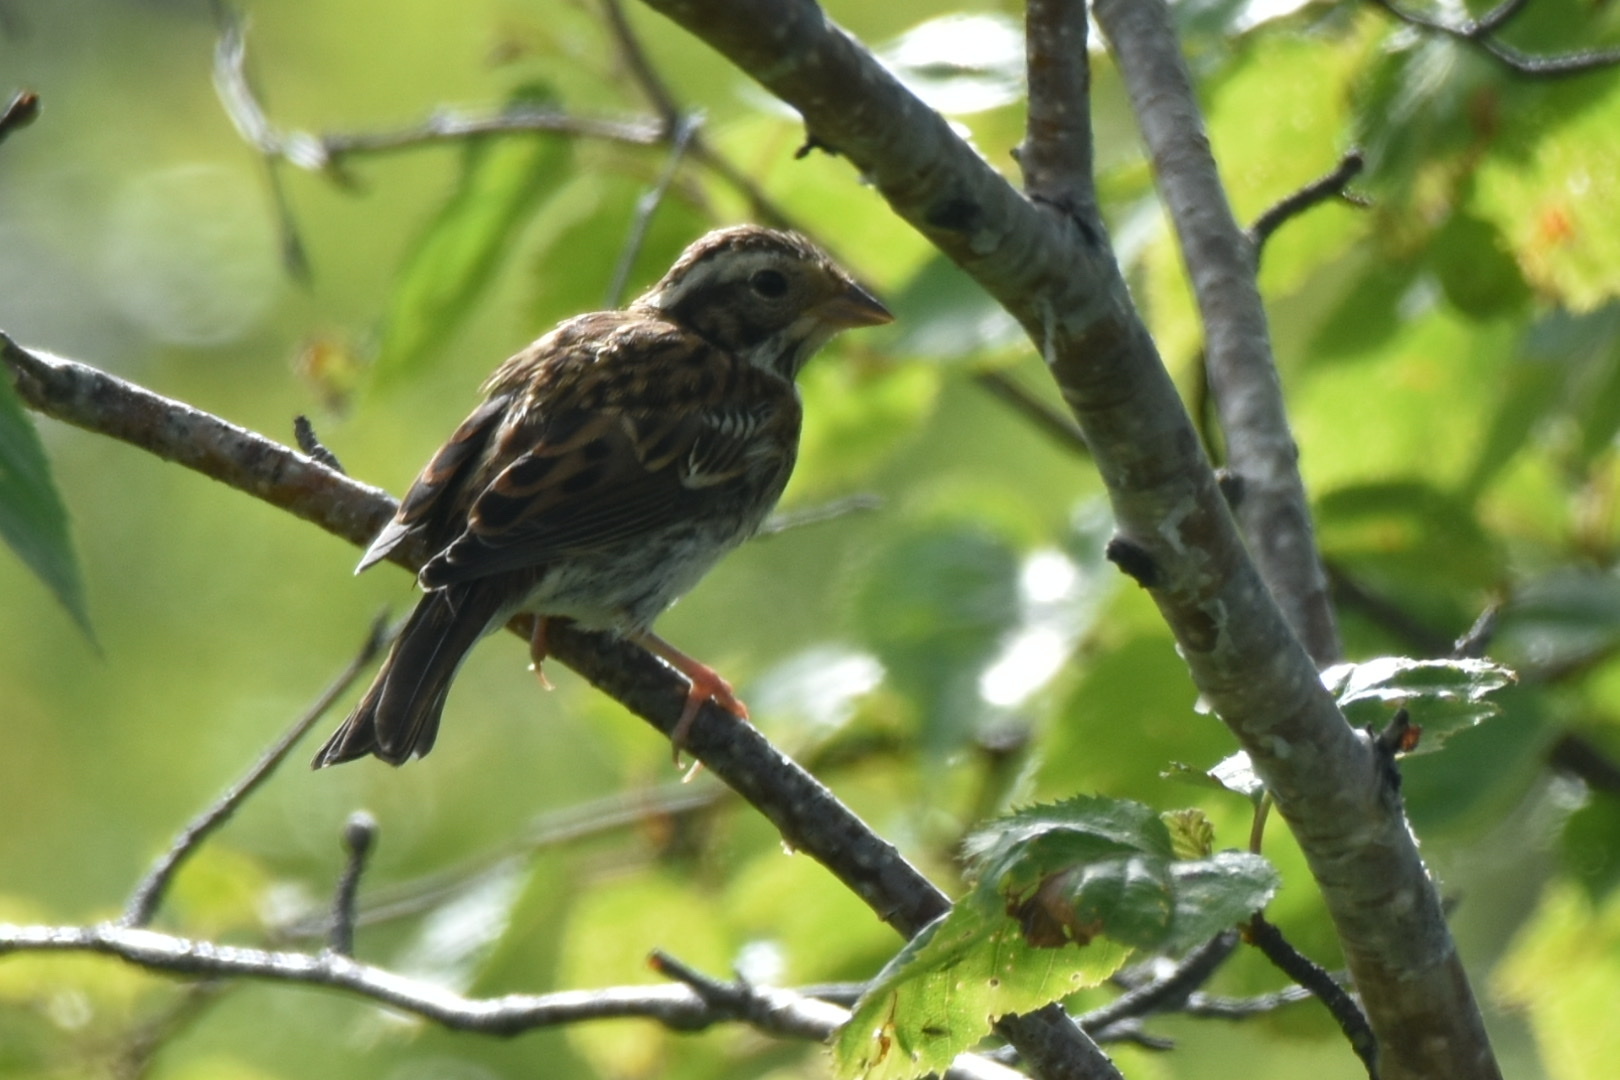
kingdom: Animalia
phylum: Chordata
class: Aves
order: Passeriformes
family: Emberizidae
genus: Emberiza
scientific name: Emberiza rustica
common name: Rustic bunting
